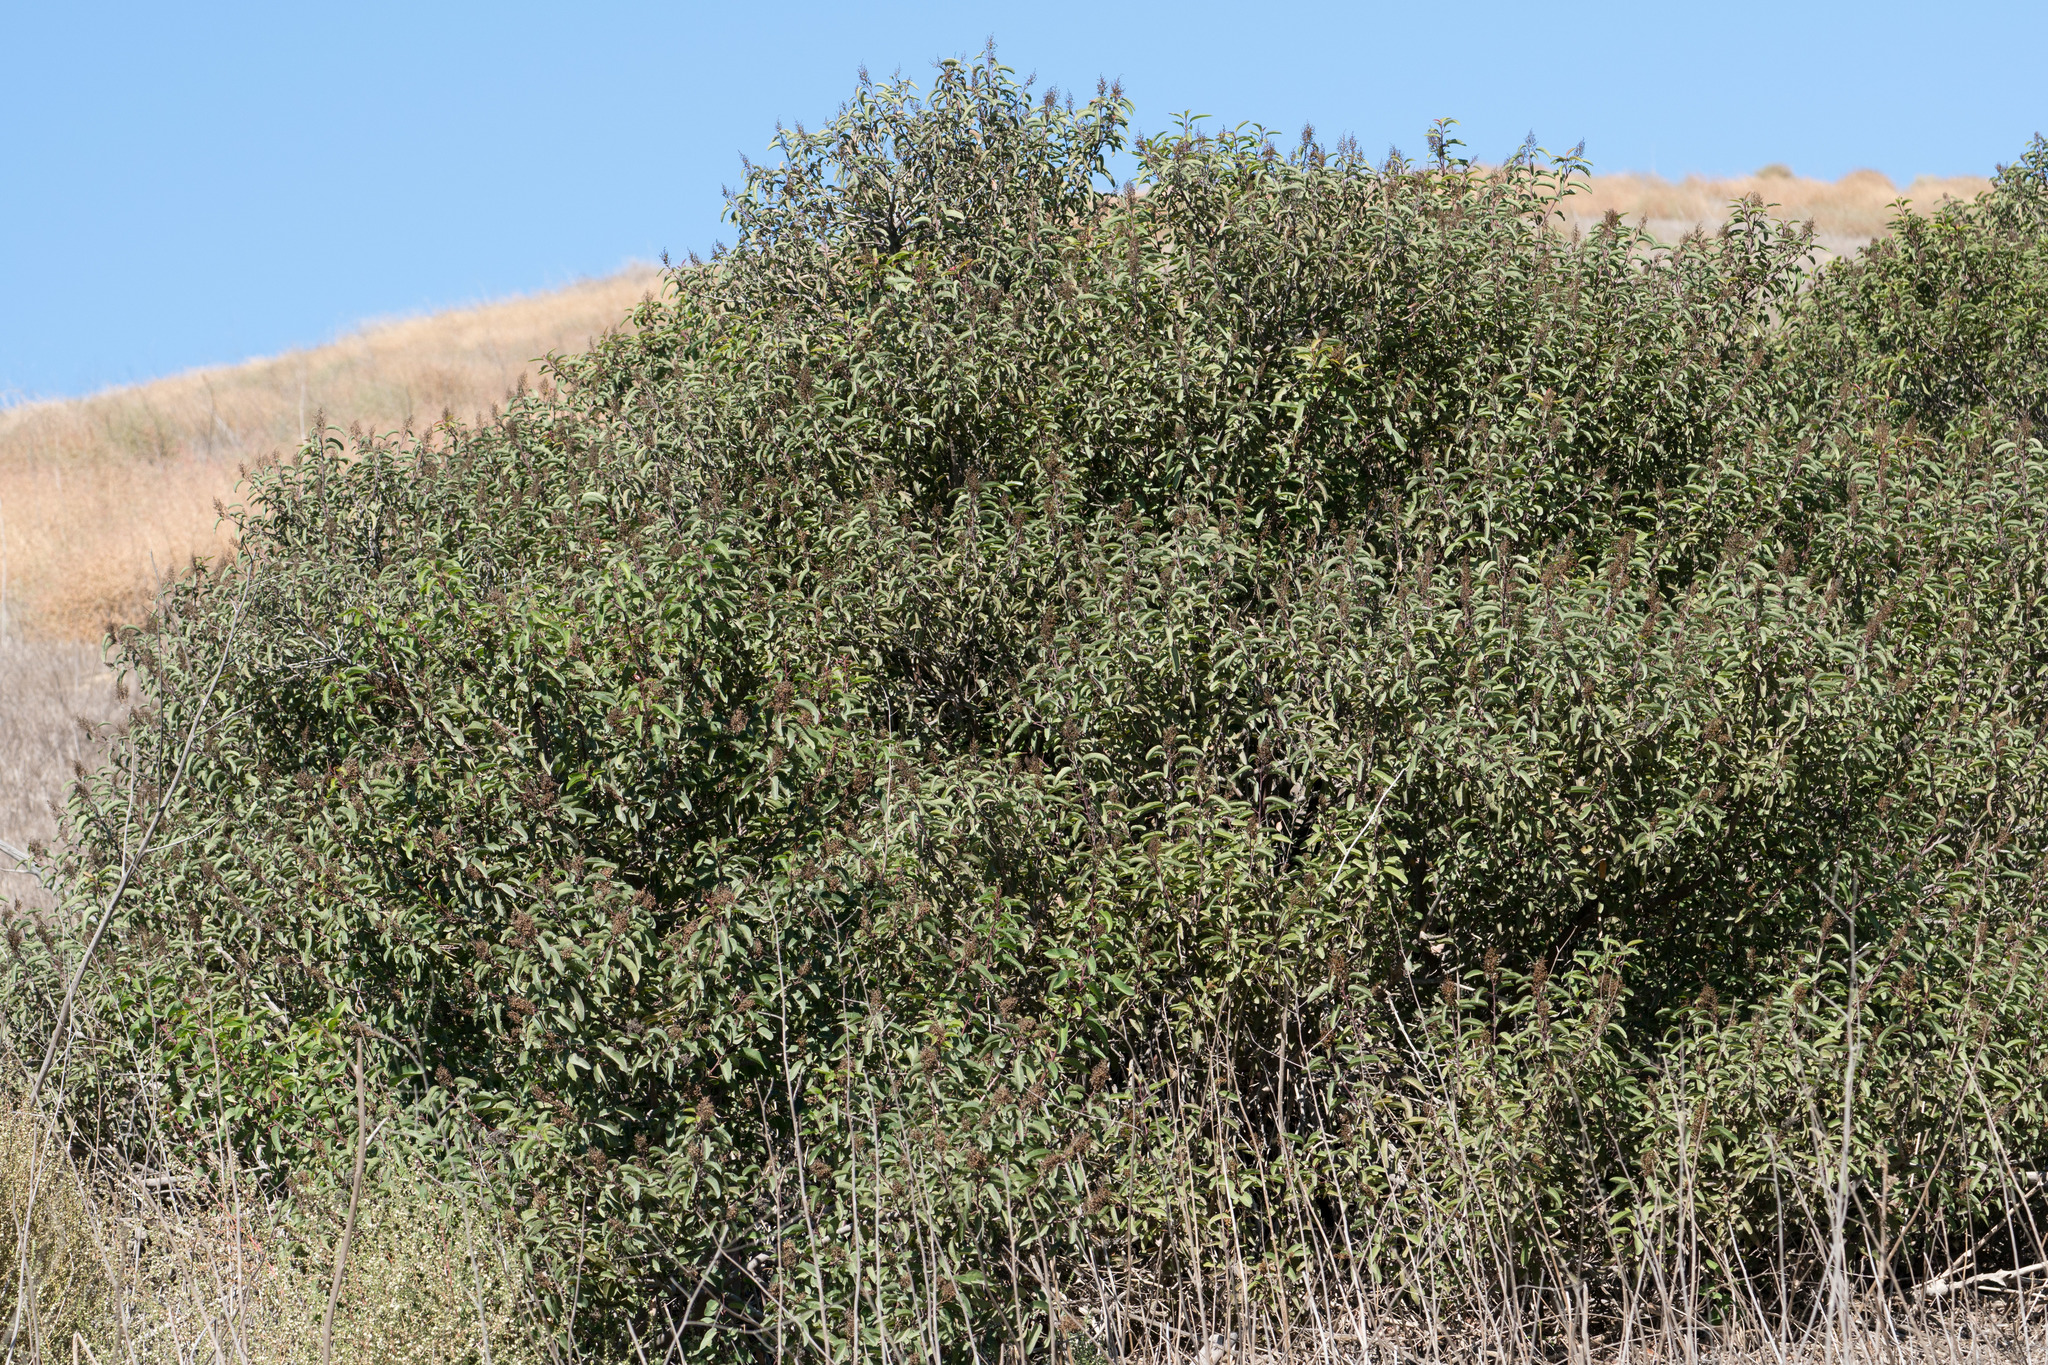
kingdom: Plantae
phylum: Tracheophyta
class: Magnoliopsida
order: Sapindales
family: Anacardiaceae
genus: Malosma
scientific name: Malosma laurina
